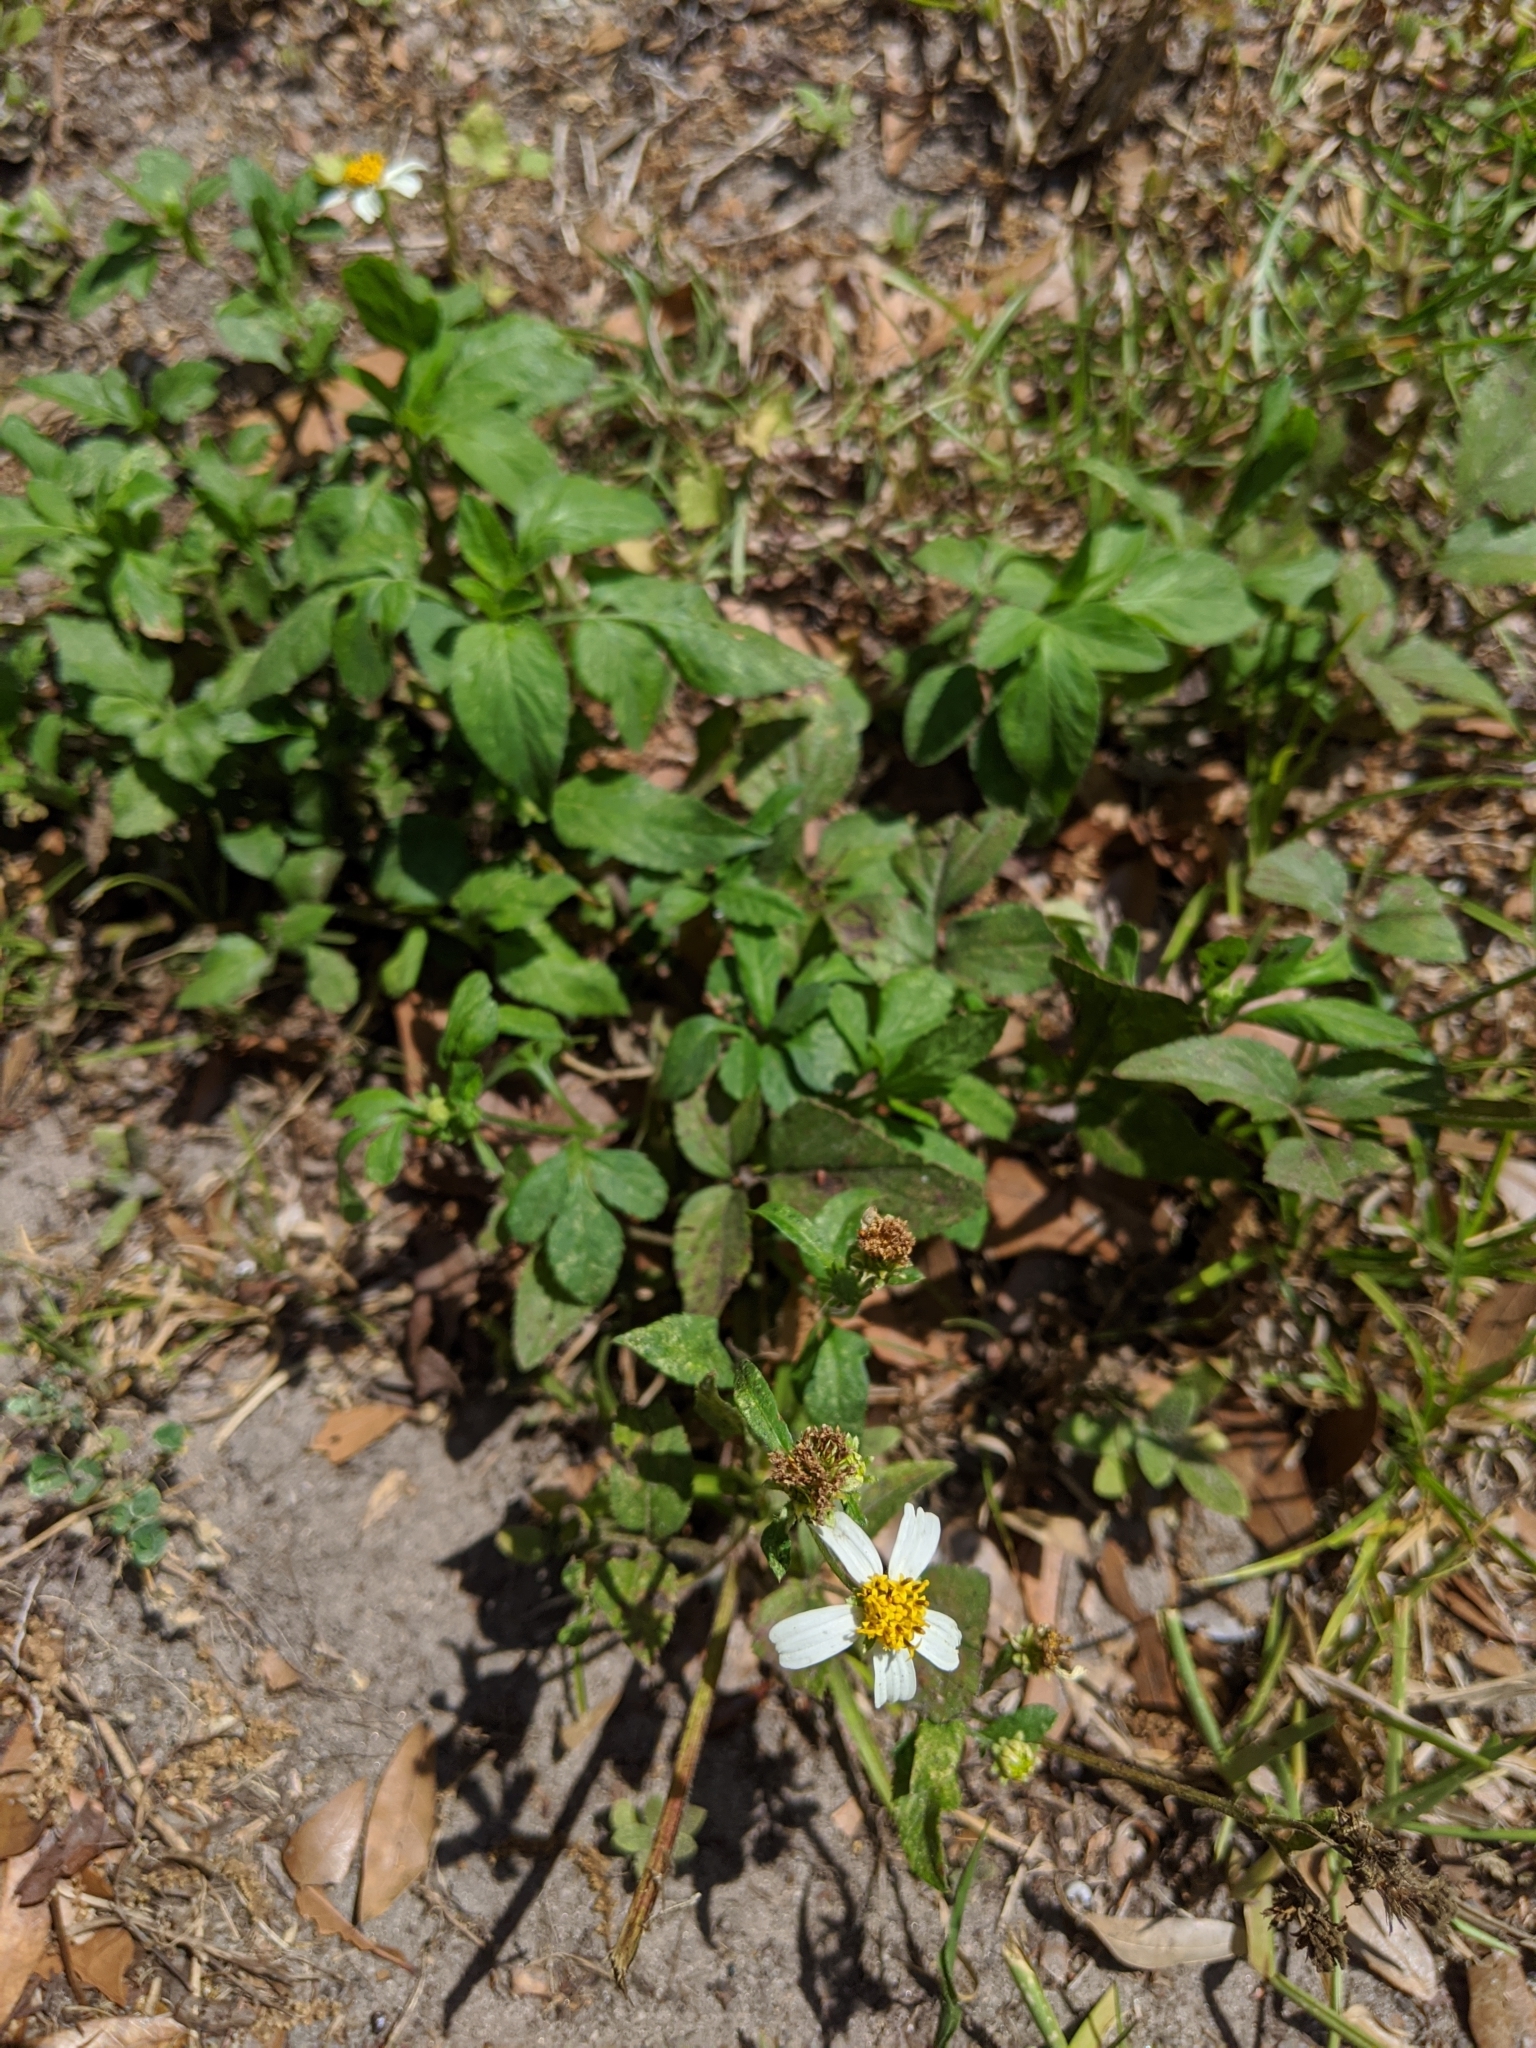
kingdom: Plantae
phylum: Tracheophyta
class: Magnoliopsida
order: Asterales
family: Asteraceae
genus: Bidens
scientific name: Bidens alba
